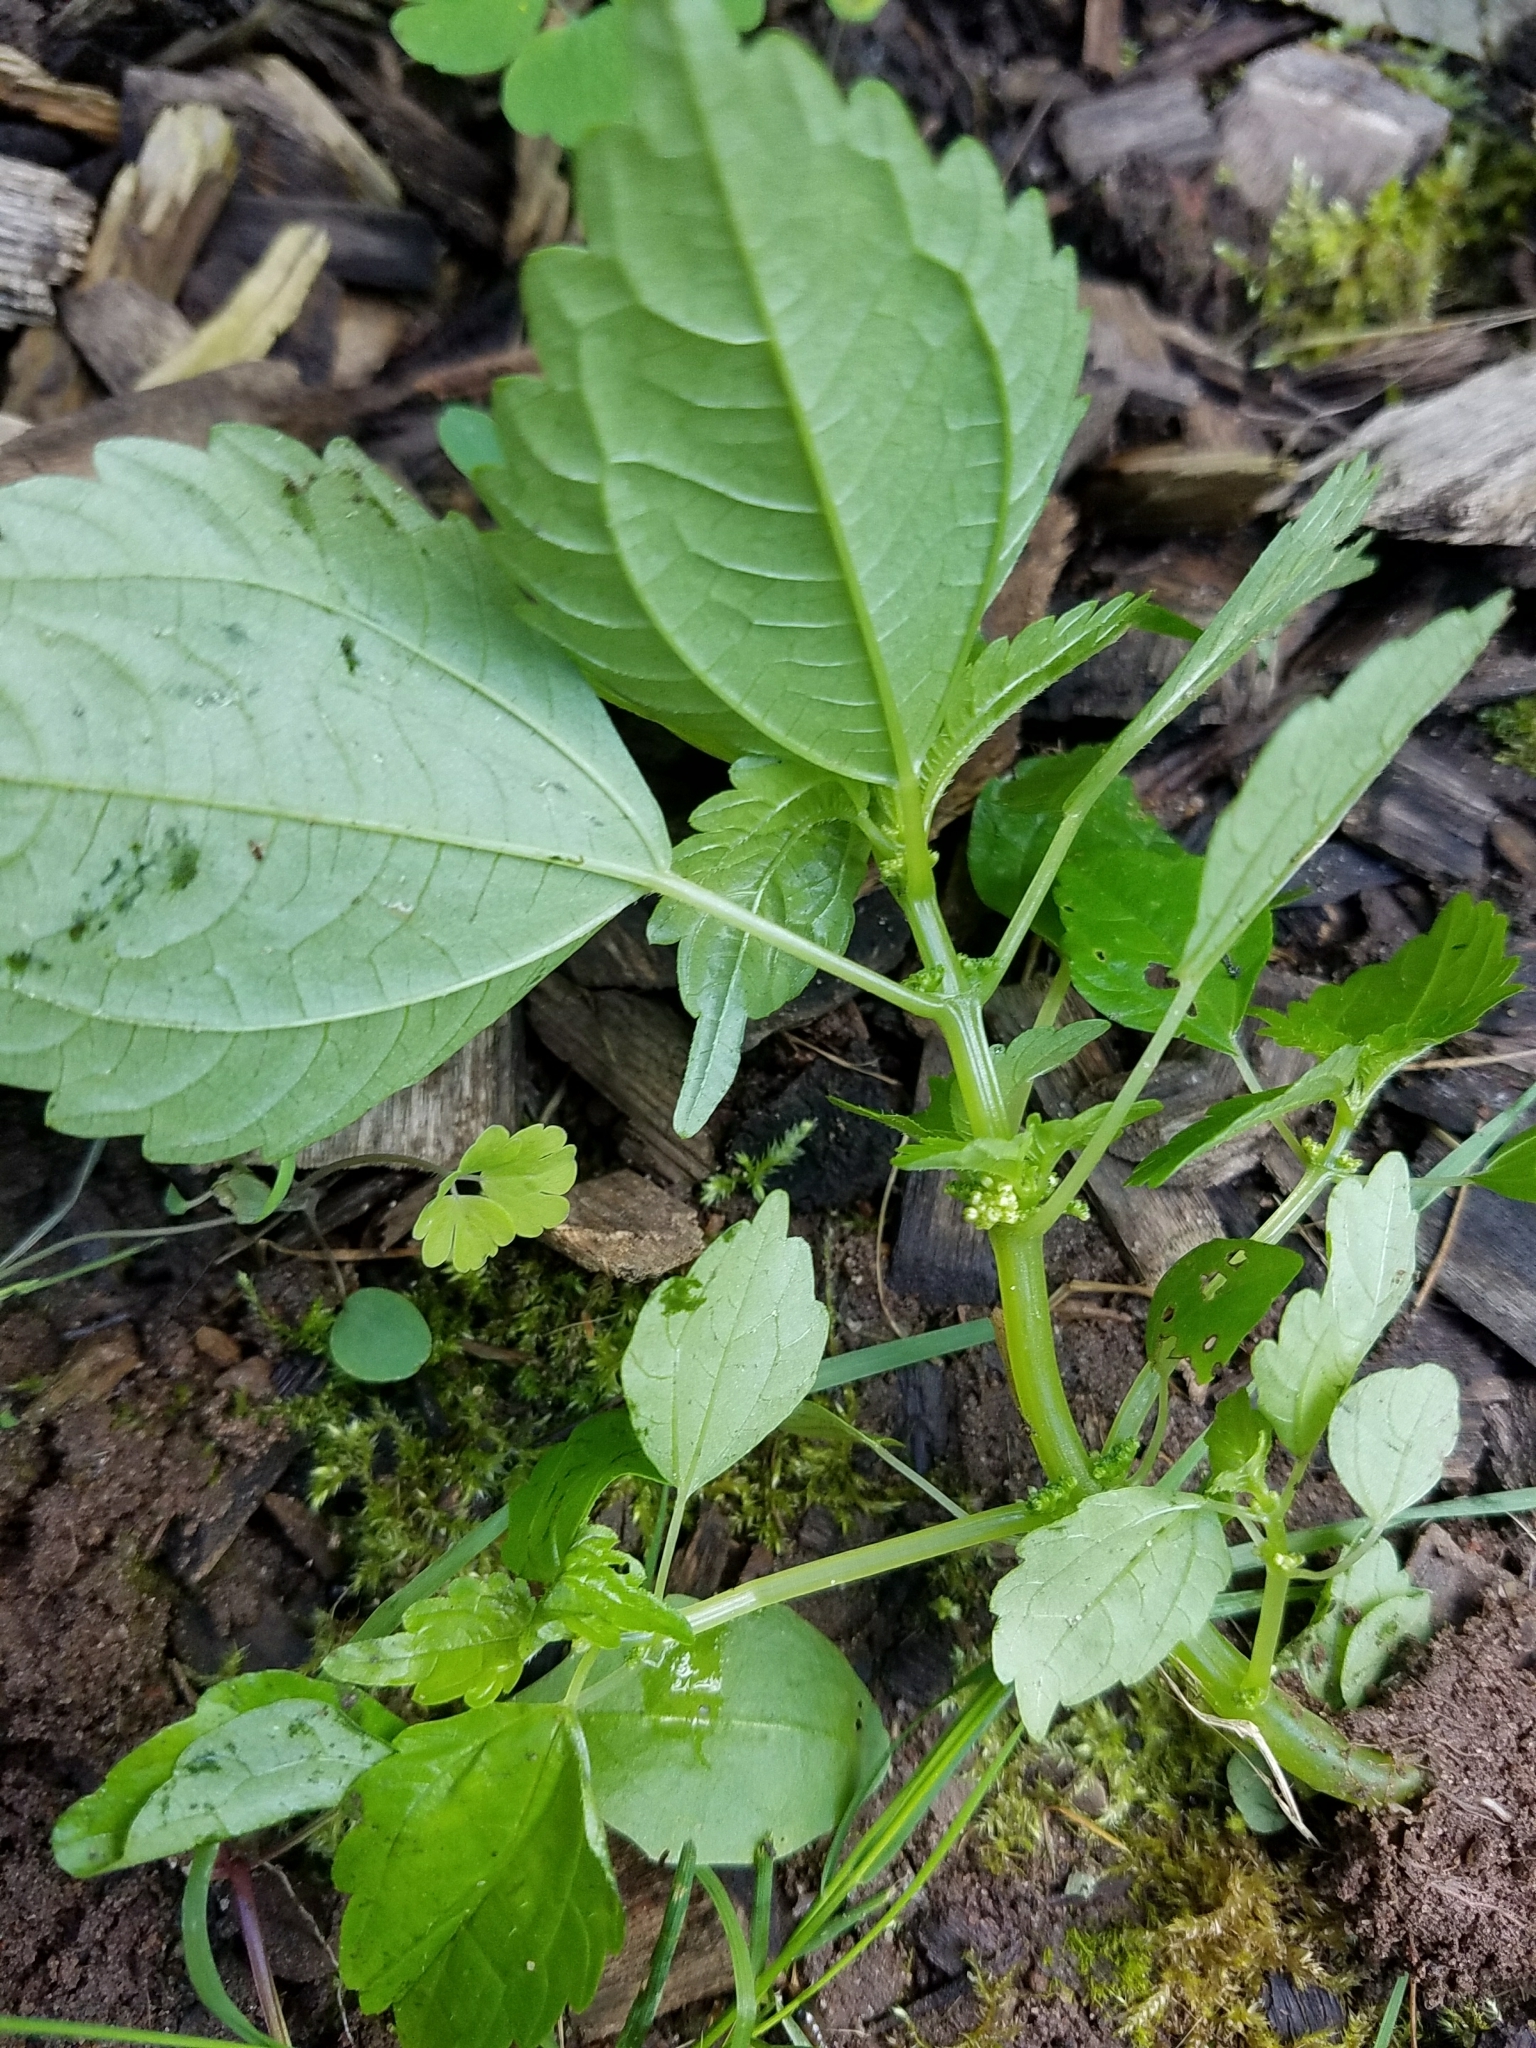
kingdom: Plantae
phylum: Tracheophyta
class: Magnoliopsida
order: Rosales
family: Urticaceae
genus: Pilea
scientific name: Pilea pumila
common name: Clearweed
